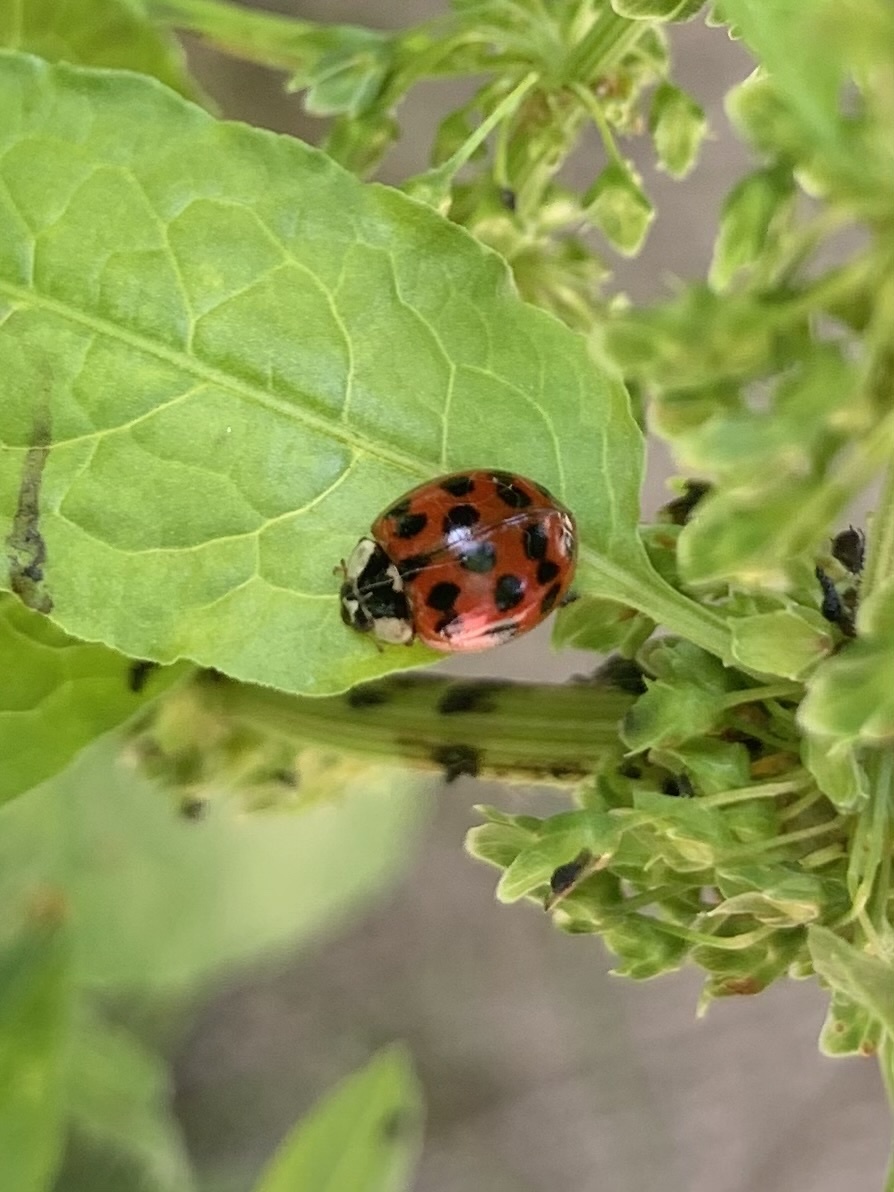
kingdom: Animalia
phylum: Arthropoda
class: Insecta
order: Coleoptera
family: Coccinellidae
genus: Harmonia
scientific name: Harmonia axyridis
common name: Harlequin ladybird
